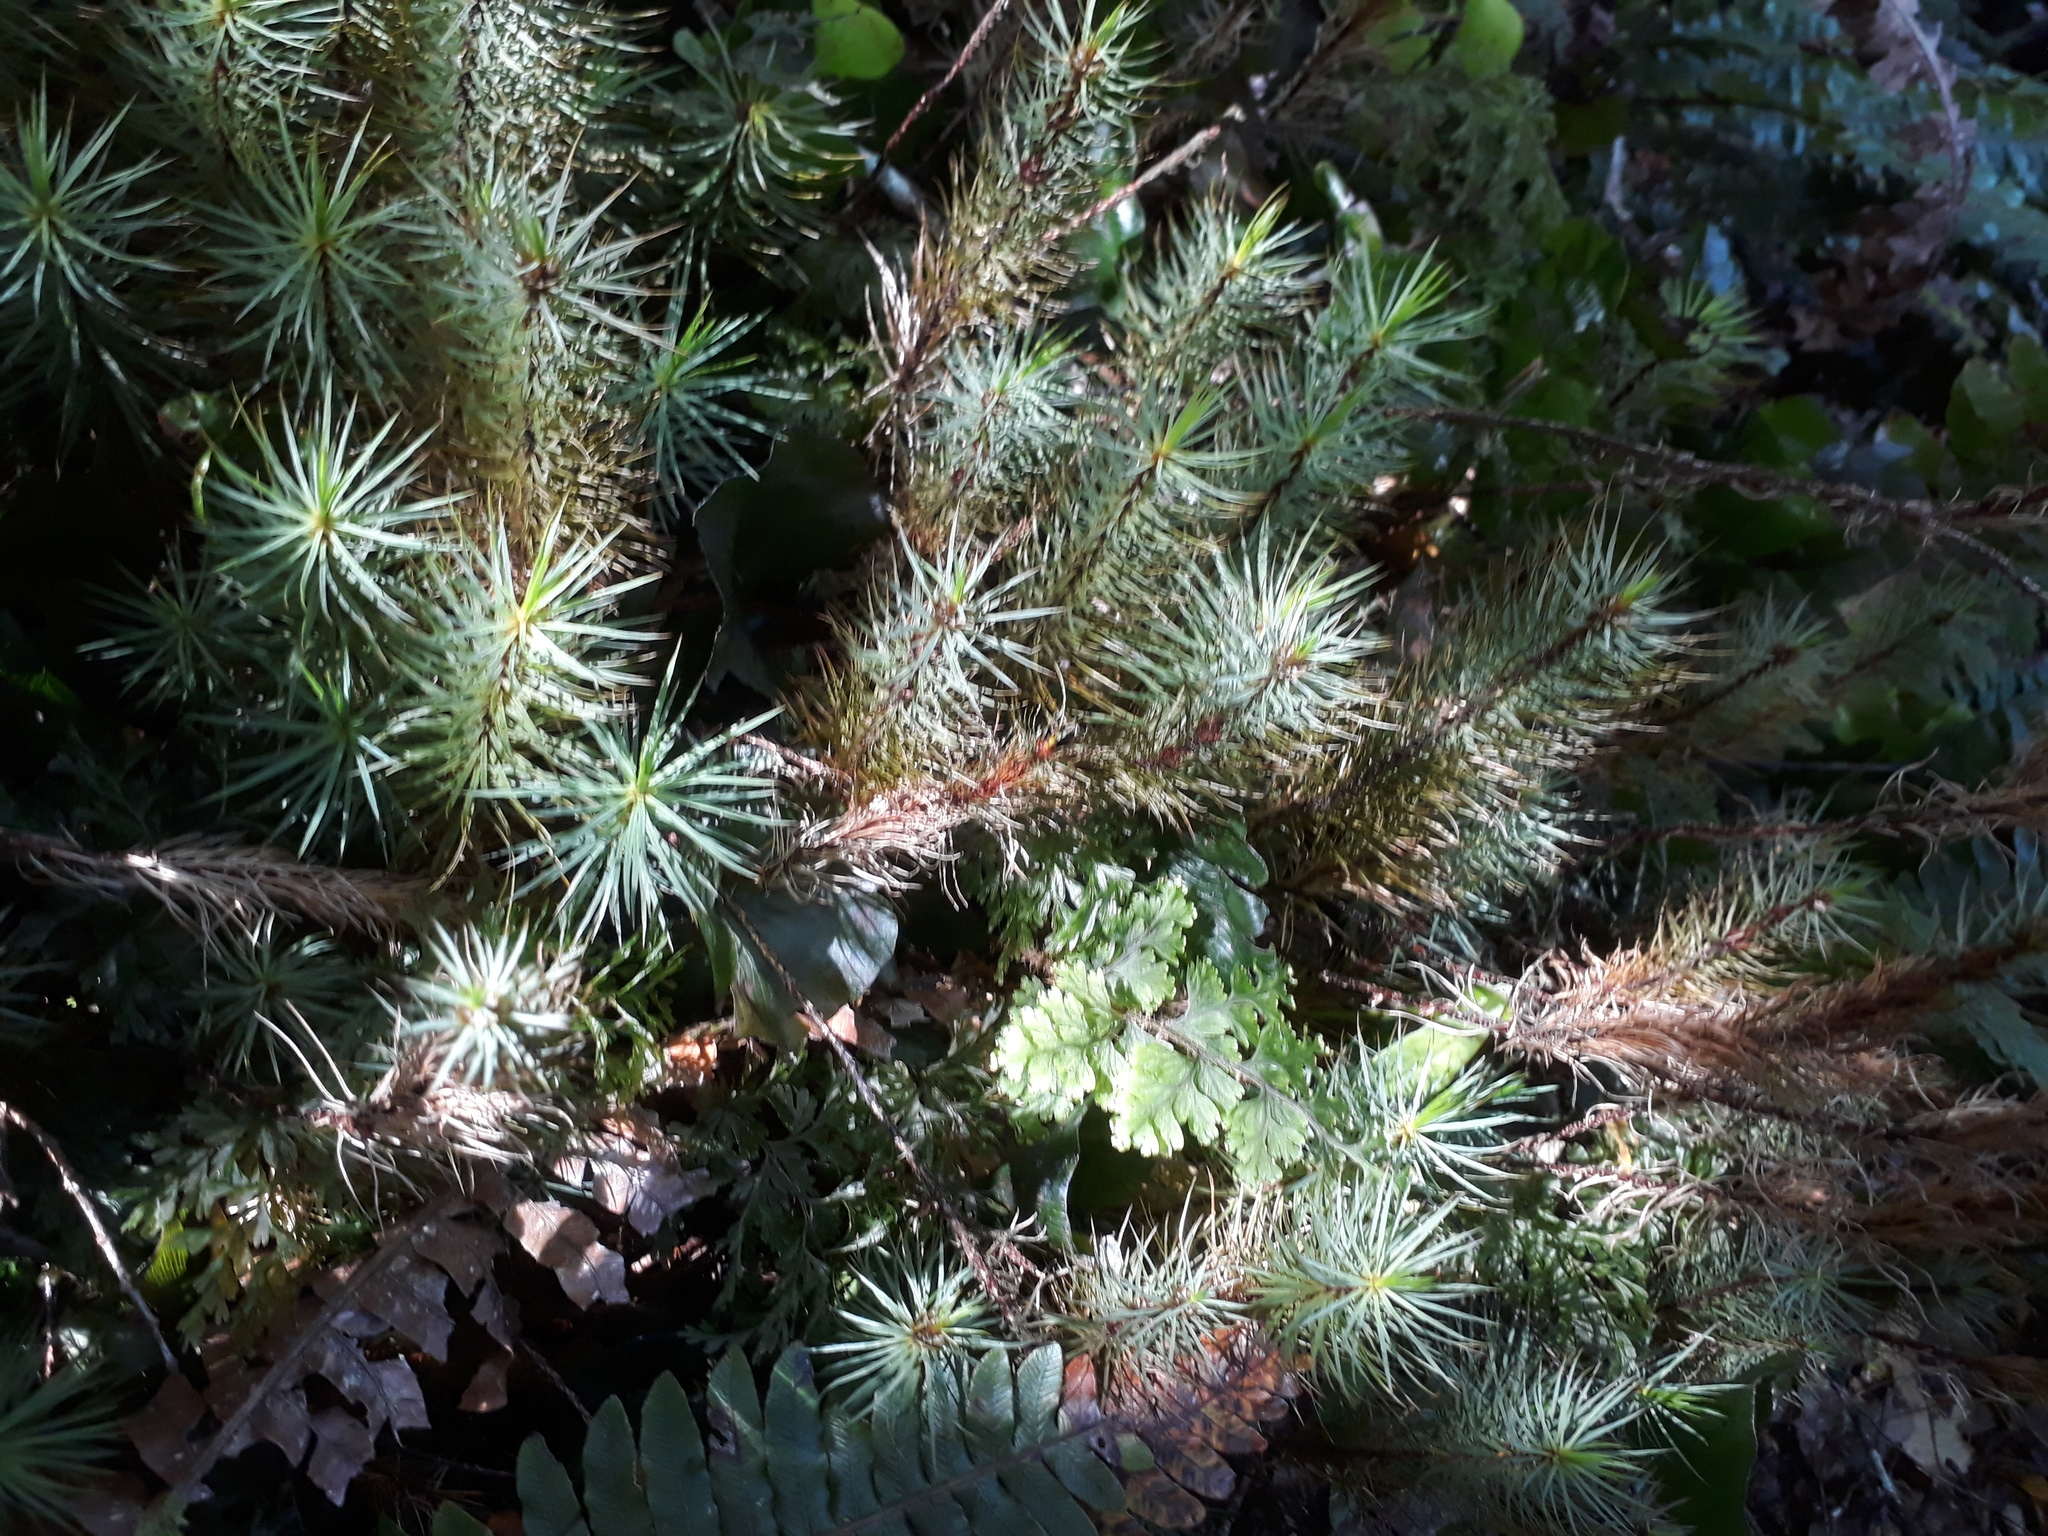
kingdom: Plantae
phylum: Bryophyta
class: Polytrichopsida
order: Polytrichales
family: Polytrichaceae
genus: Dawsonia
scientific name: Dawsonia superba
